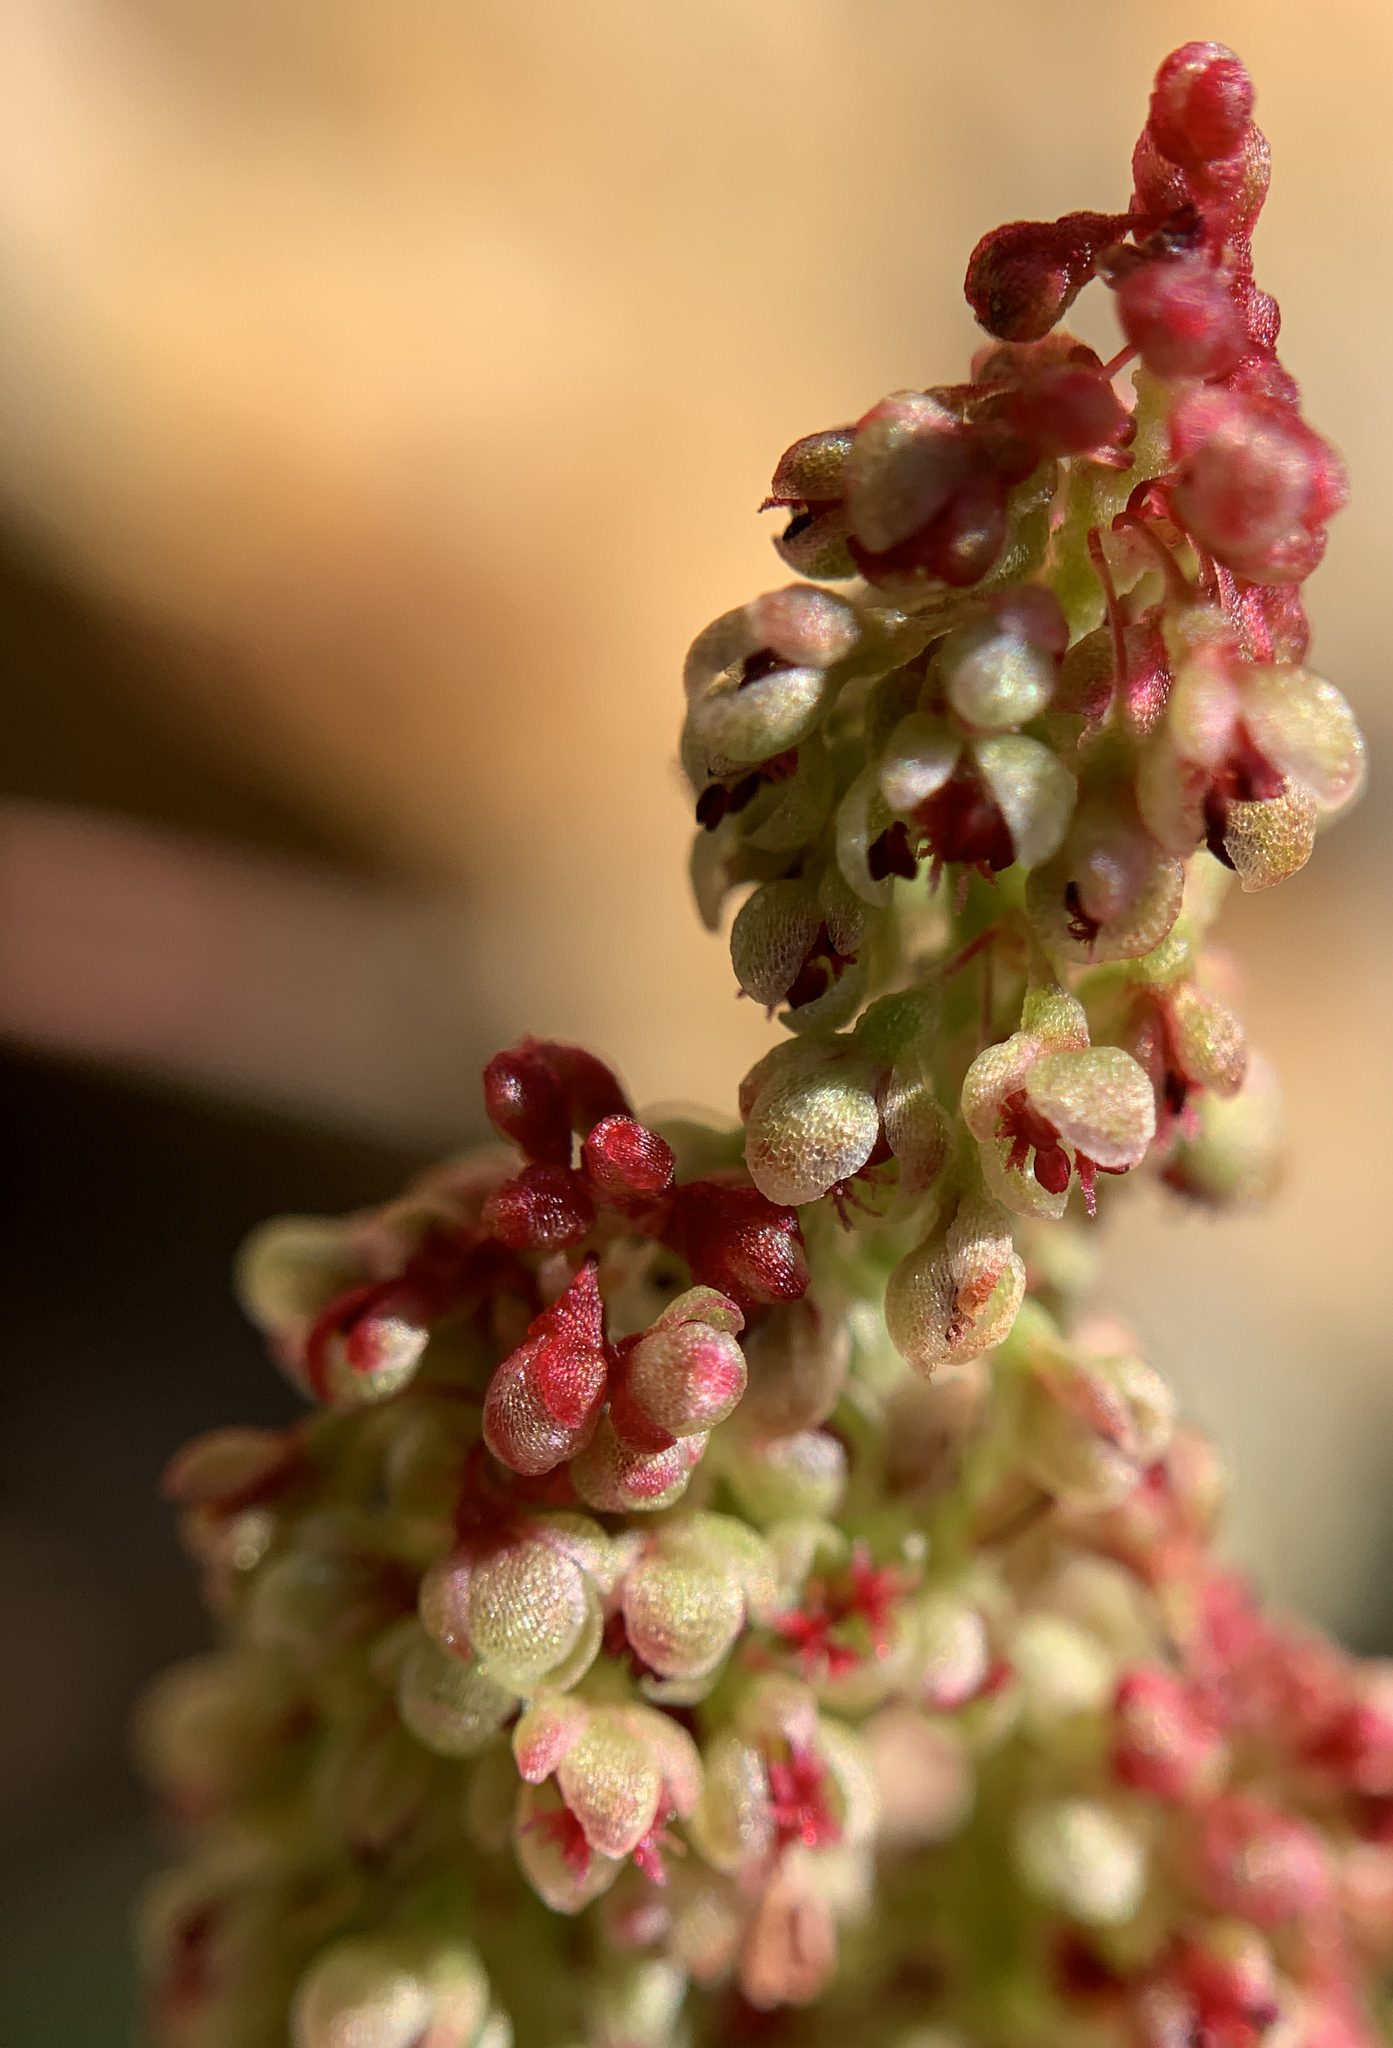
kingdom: Plantae
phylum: Tracheophyta
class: Magnoliopsida
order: Caryophyllales
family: Polygonaceae
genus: Oxyria
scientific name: Oxyria digyna
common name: Alpine mountain-sorrel
